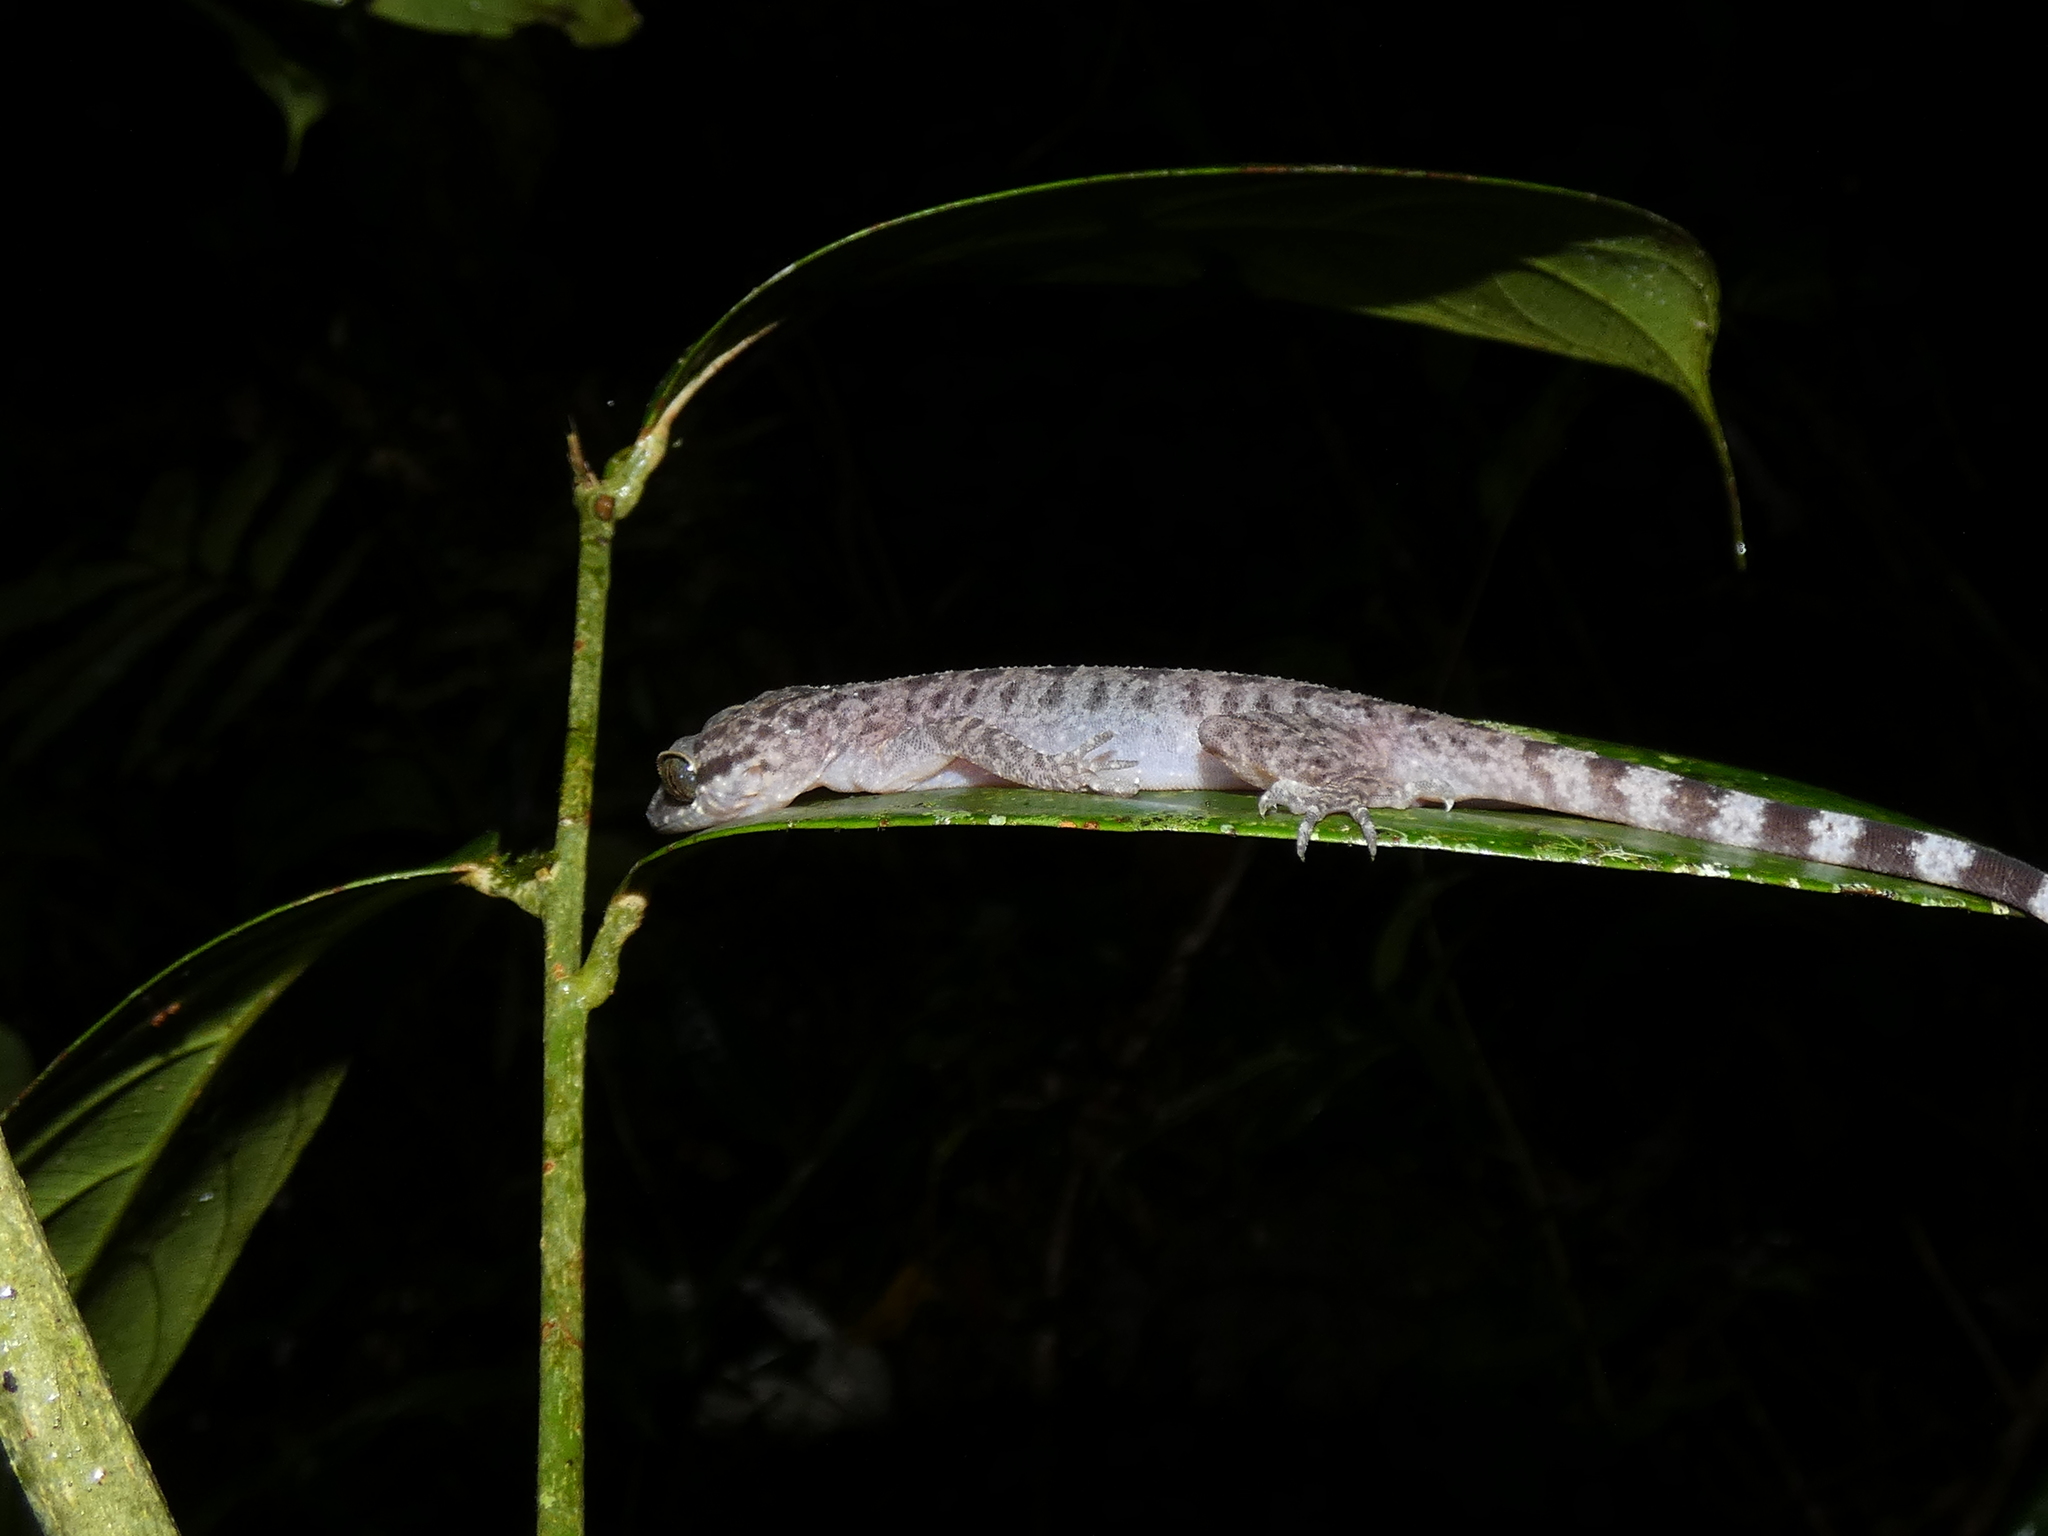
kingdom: Animalia
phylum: Chordata
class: Squamata
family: Gekkonidae
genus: Cyrtodactylus
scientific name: Cyrtodactylus miriensis
